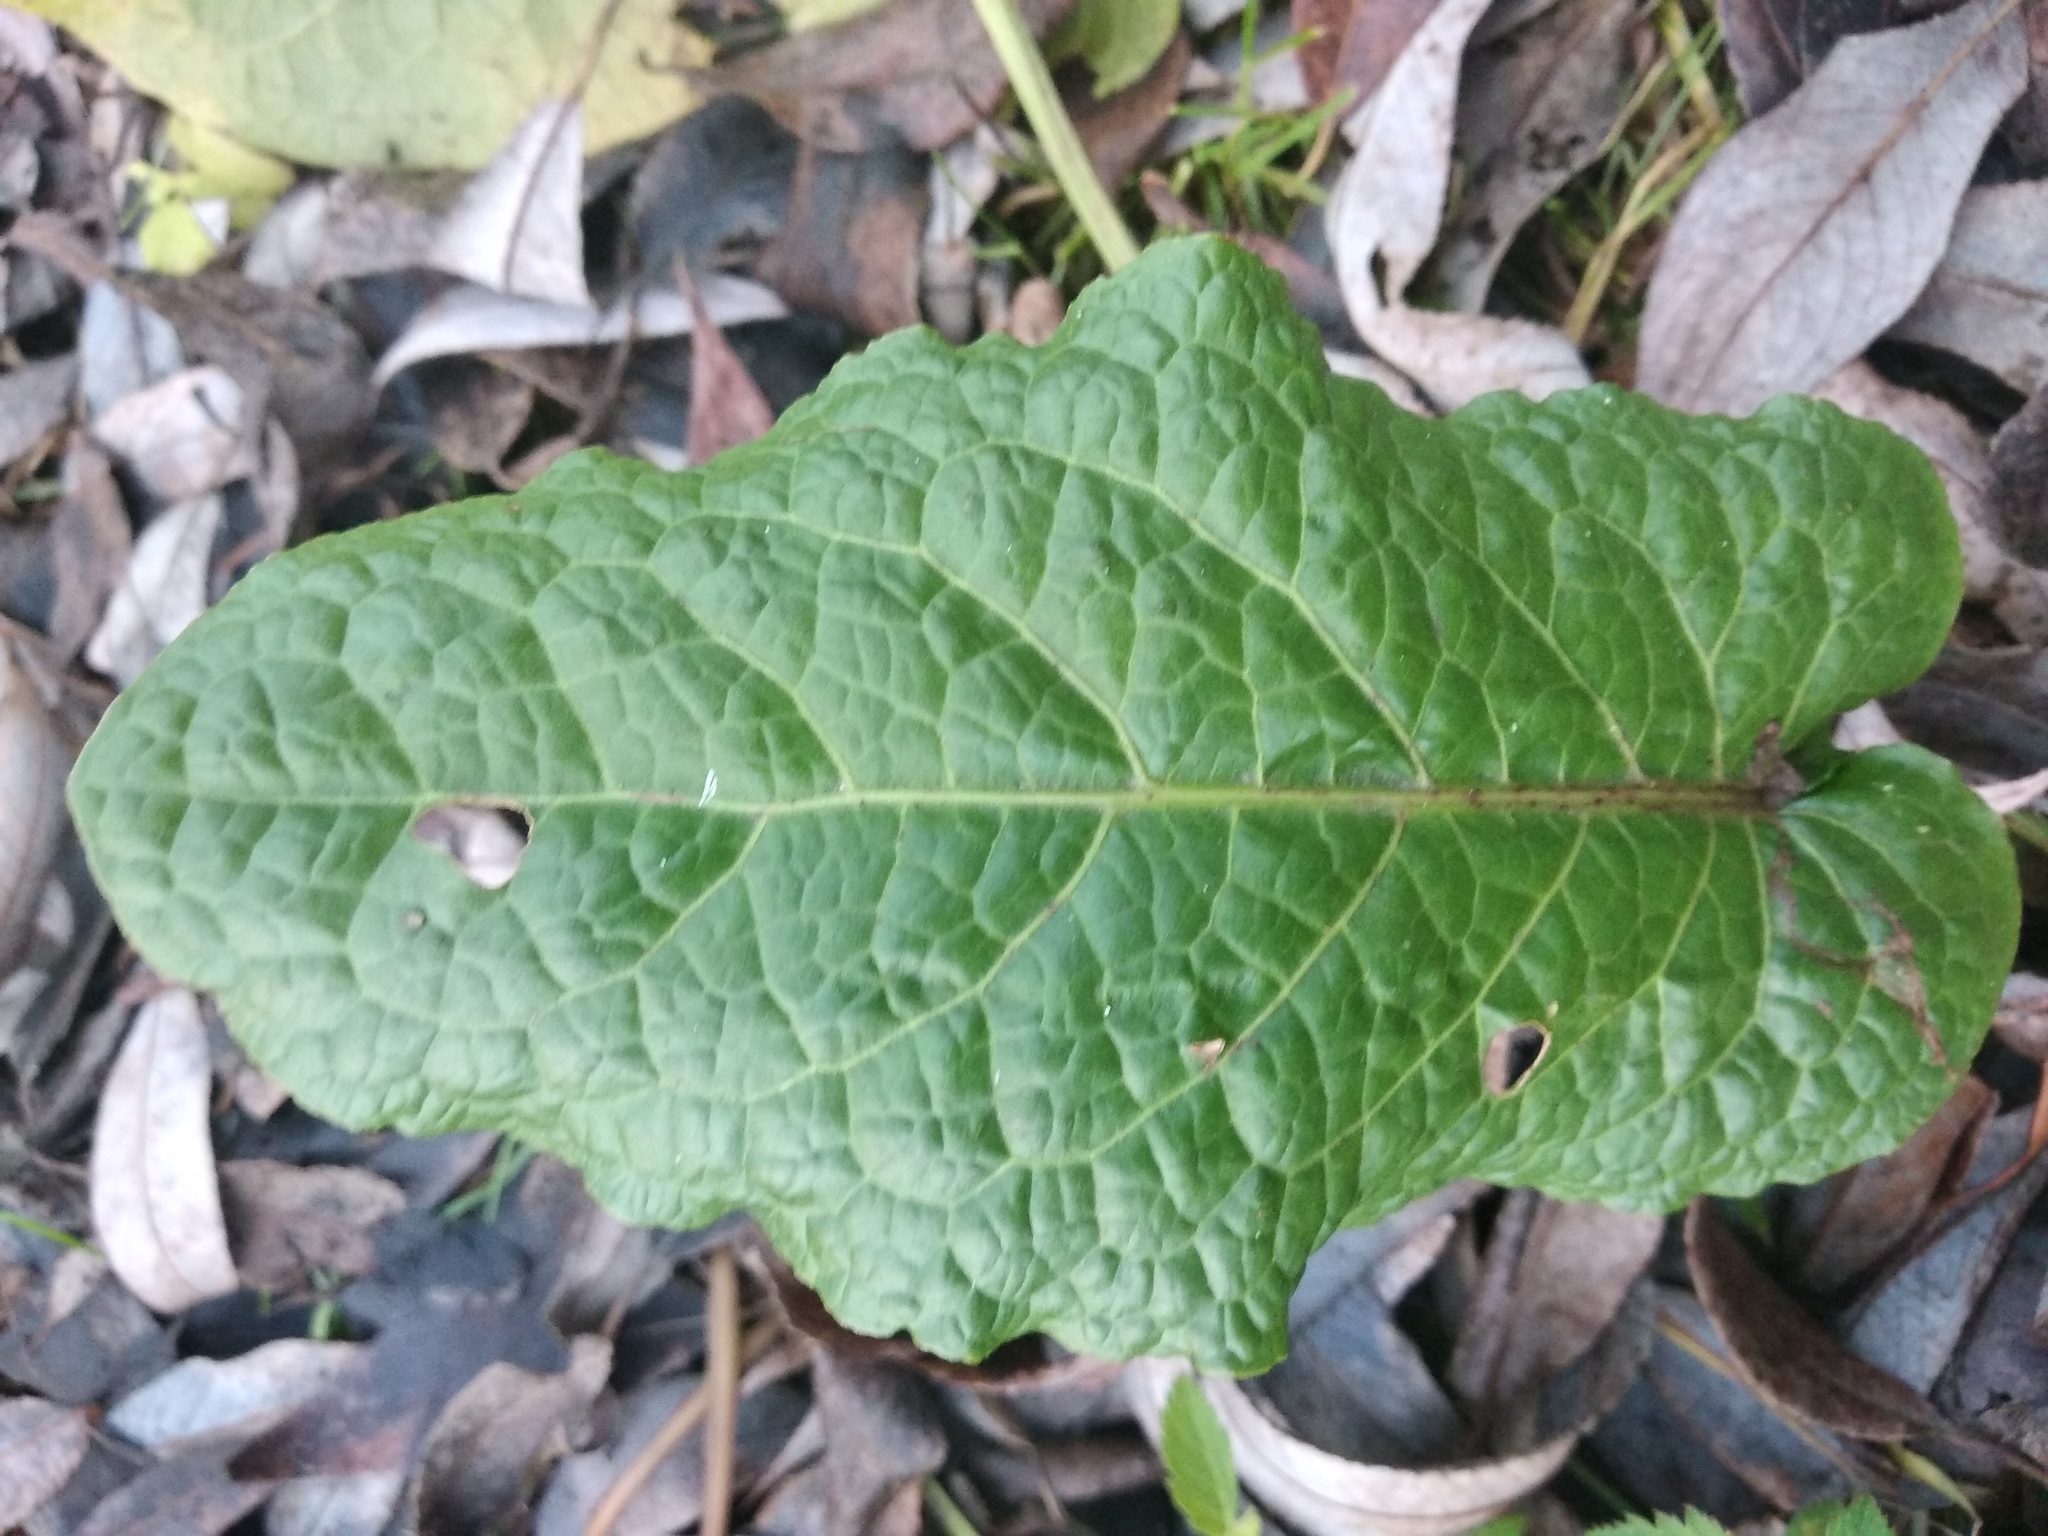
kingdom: Plantae
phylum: Tracheophyta
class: Magnoliopsida
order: Caryophyllales
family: Polygonaceae
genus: Rumex
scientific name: Rumex obtusifolius
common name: Bitter dock
